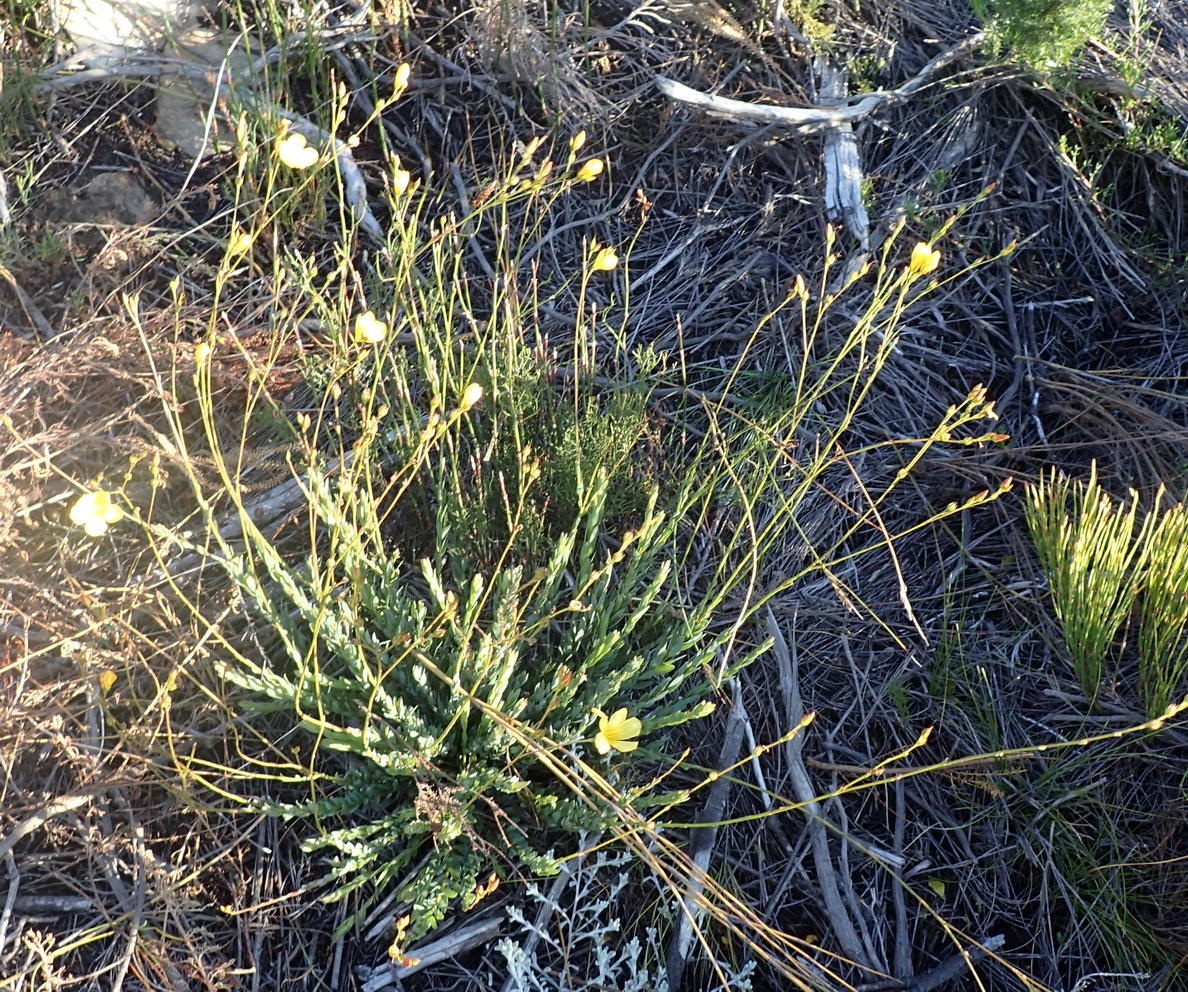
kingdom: Plantae
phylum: Tracheophyta
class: Magnoliopsida
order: Malpighiales
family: Linaceae
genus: Linum
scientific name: Linum africanum
